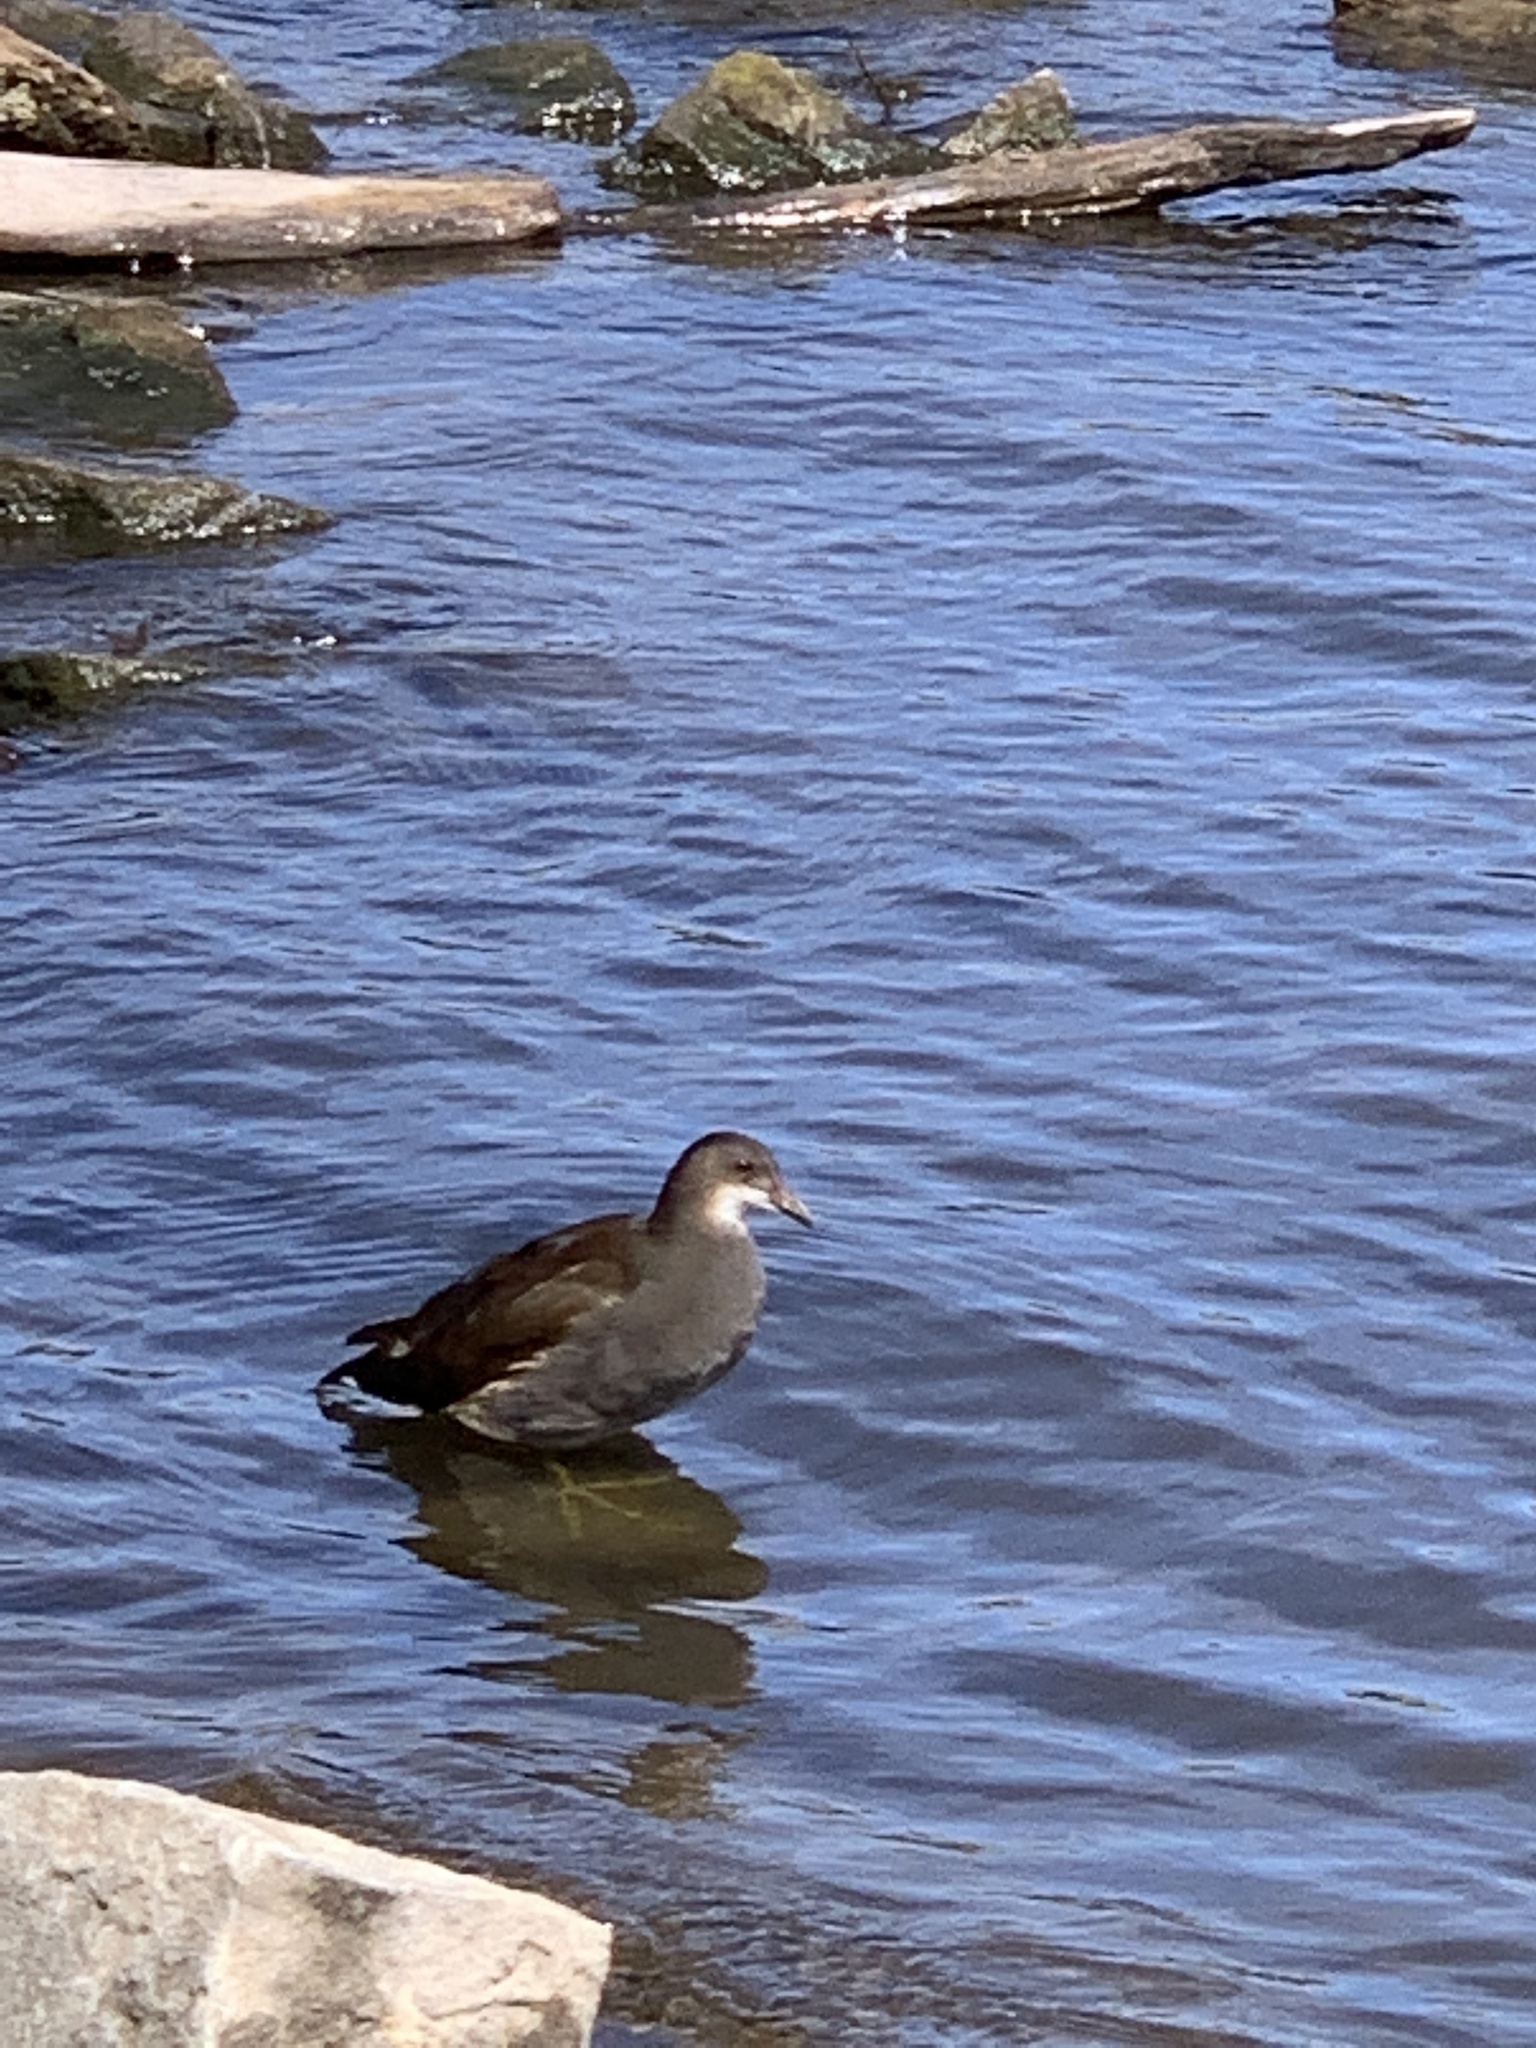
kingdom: Animalia
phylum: Chordata
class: Aves
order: Gruiformes
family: Rallidae
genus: Gallinula
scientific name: Gallinula chloropus
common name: Common moorhen
